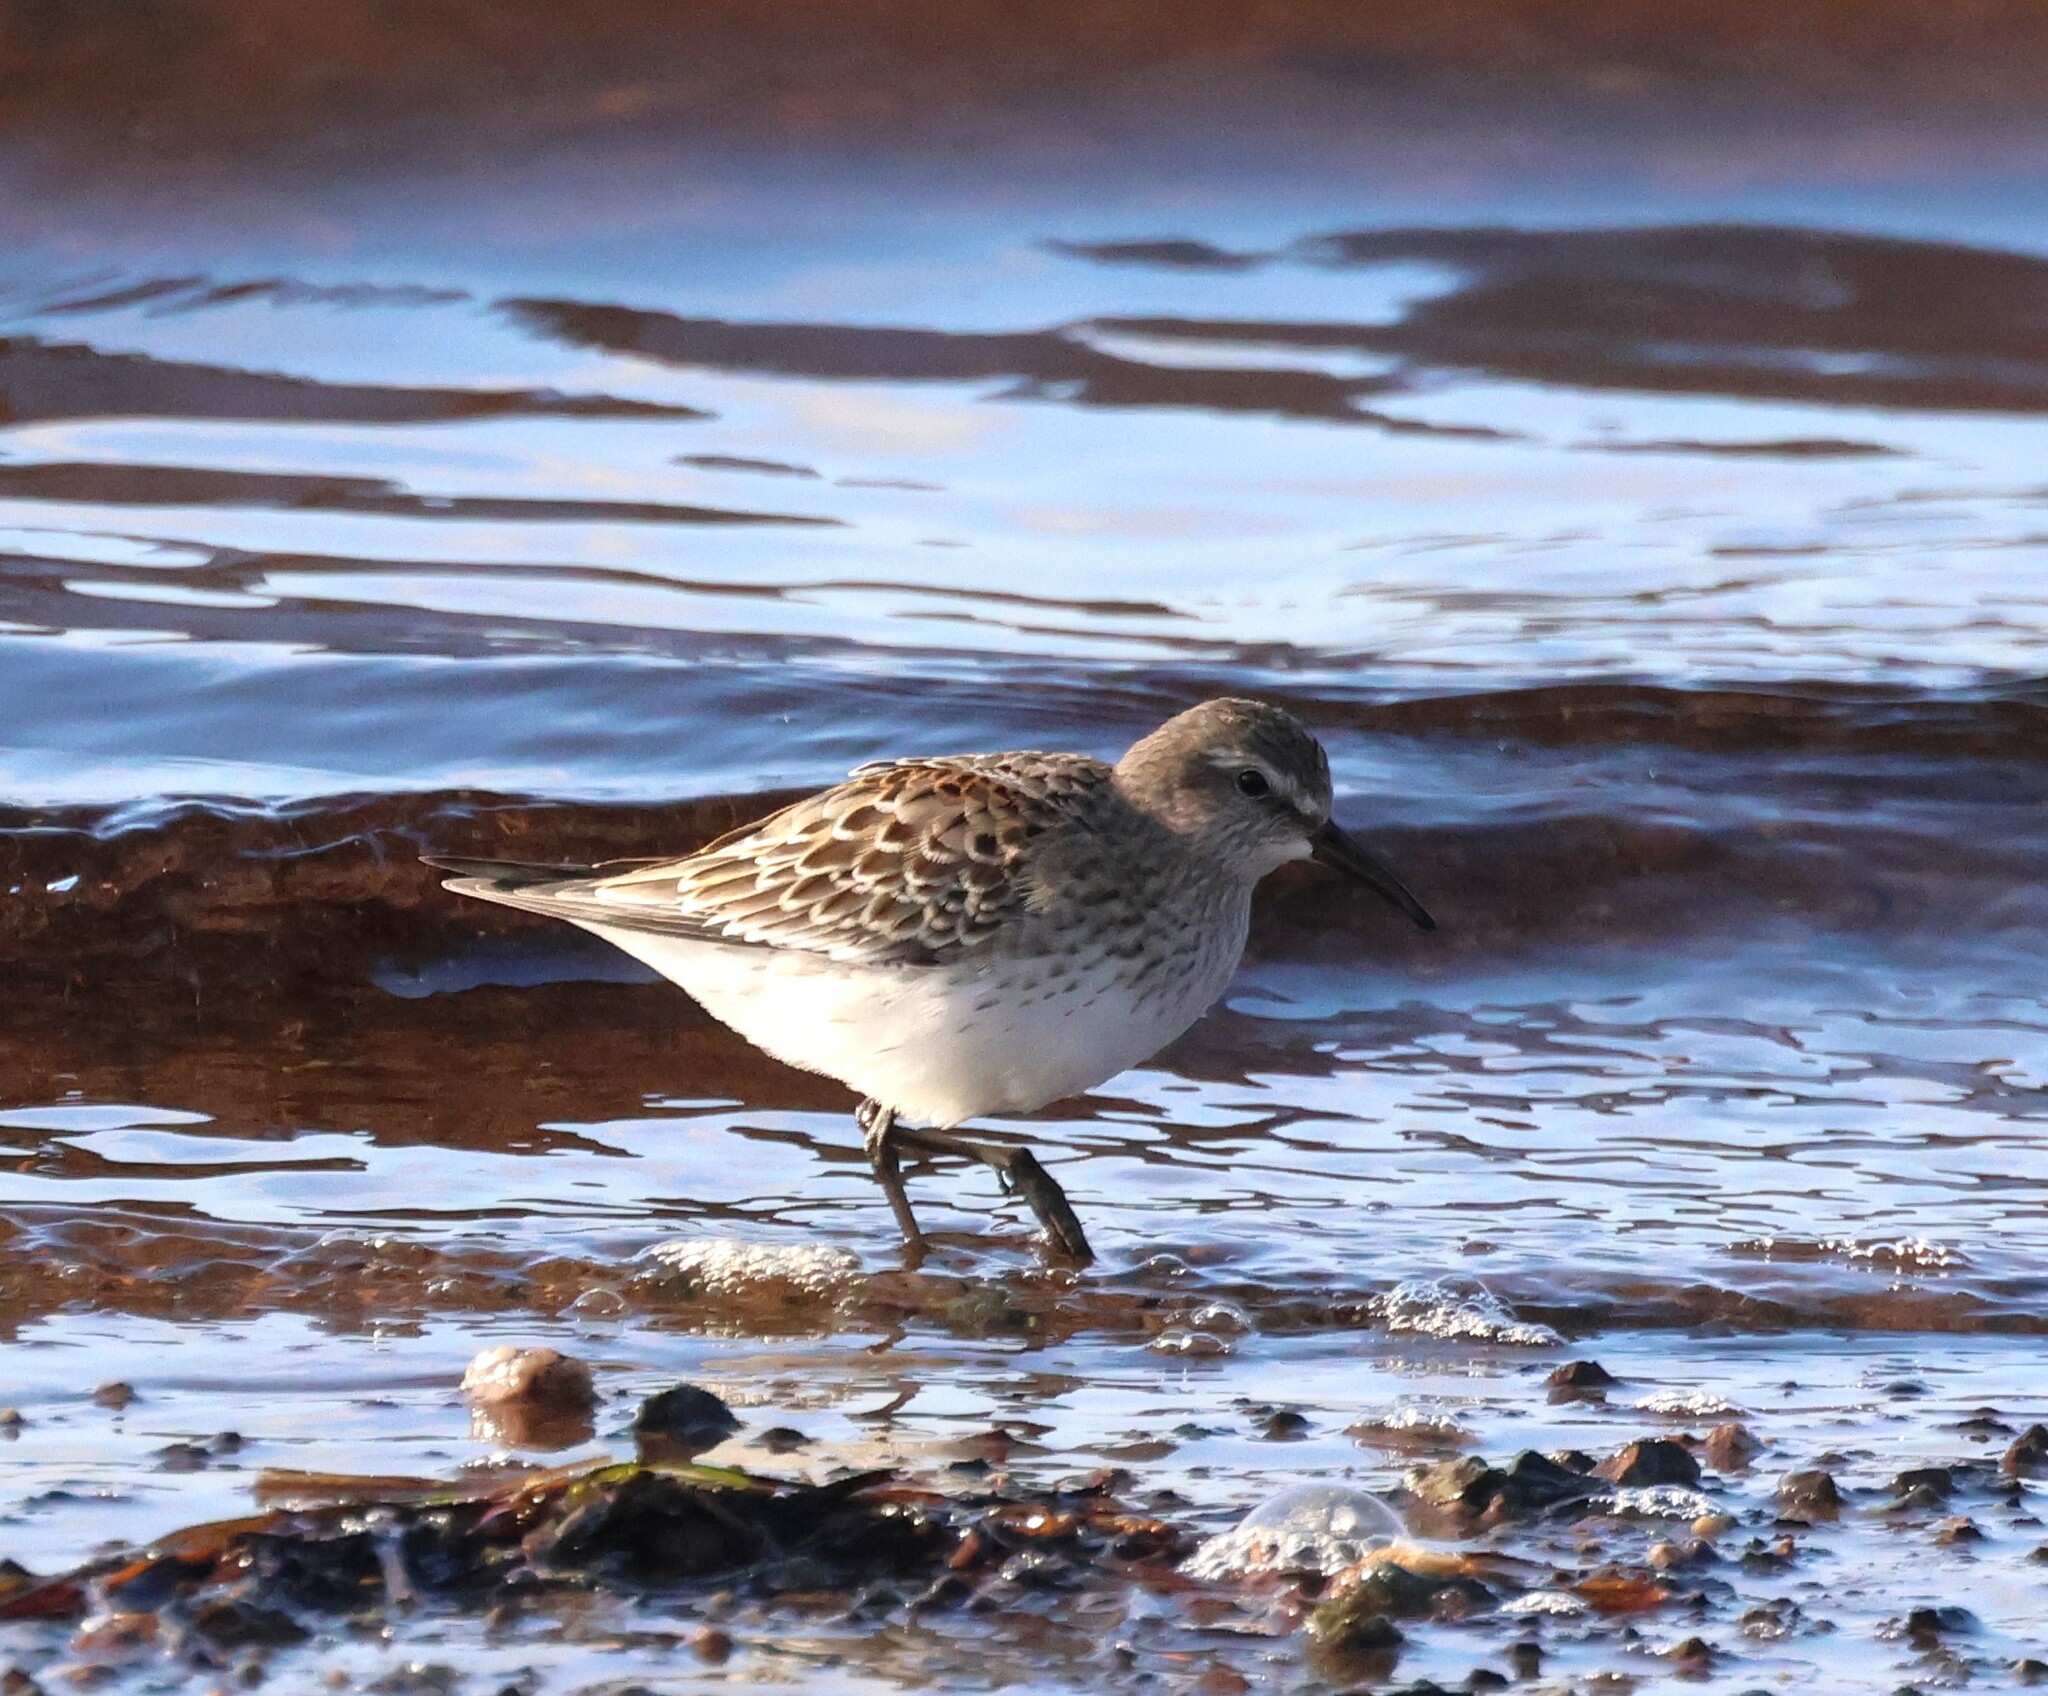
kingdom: Animalia
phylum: Chordata
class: Aves
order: Charadriiformes
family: Scolopacidae
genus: Calidris
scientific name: Calidris fuscicollis
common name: White-rumped sandpiper
